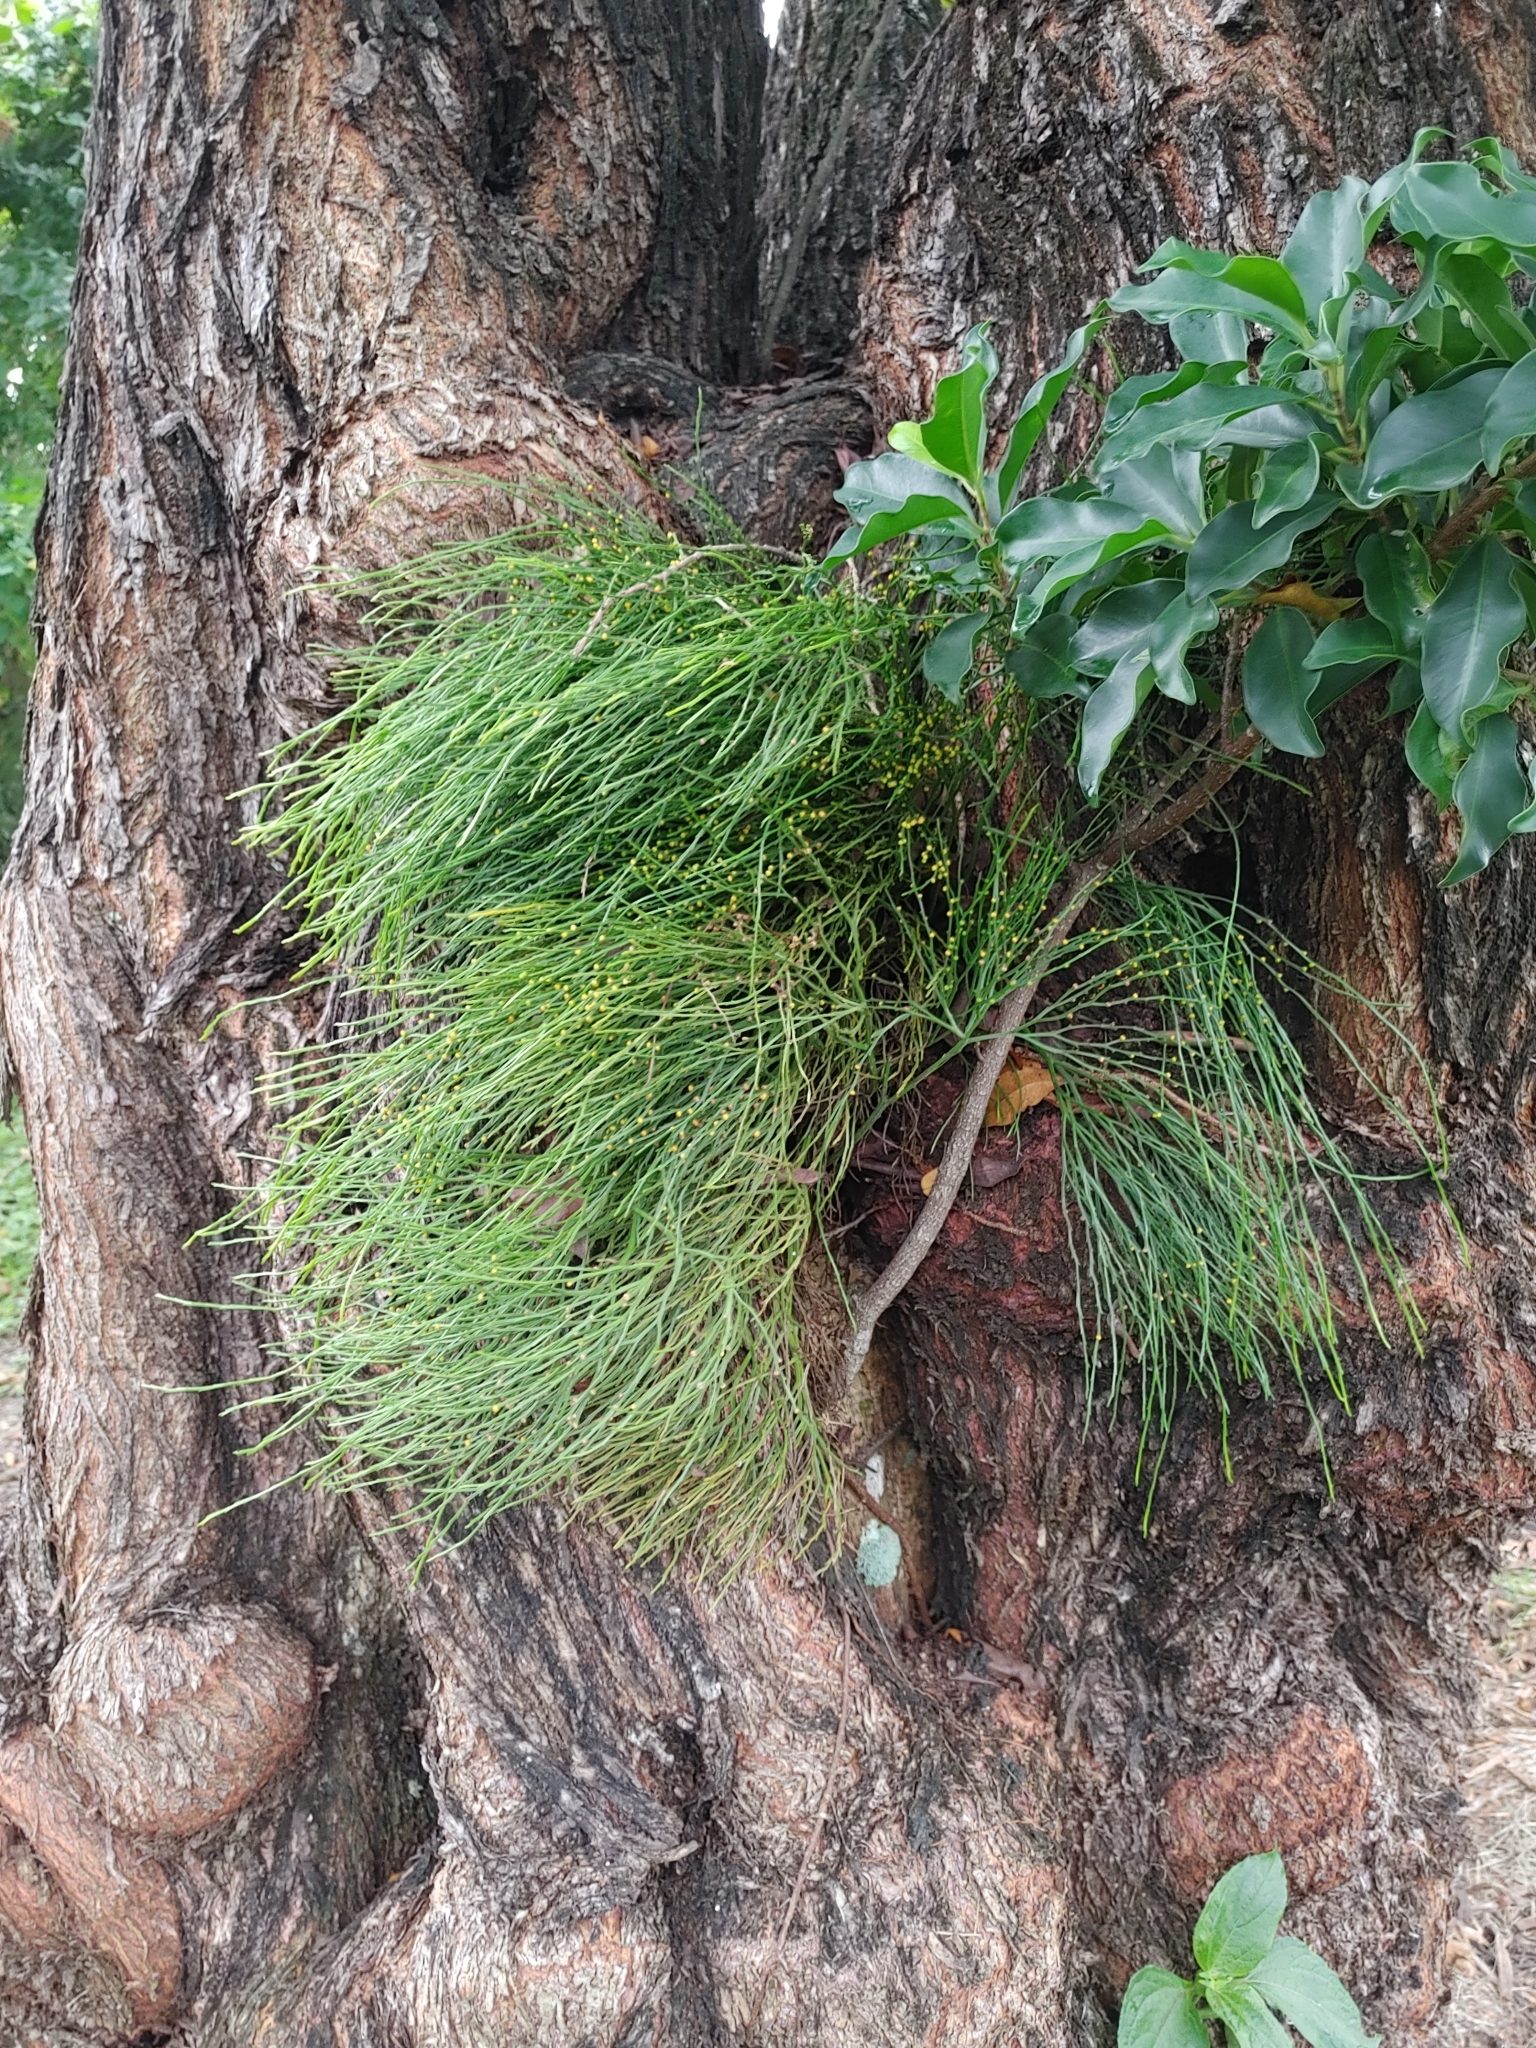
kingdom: Plantae
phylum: Tracheophyta
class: Polypodiopsida
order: Psilotales
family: Psilotaceae
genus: Psilotum
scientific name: Psilotum nudum
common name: Skeleton fork fern
